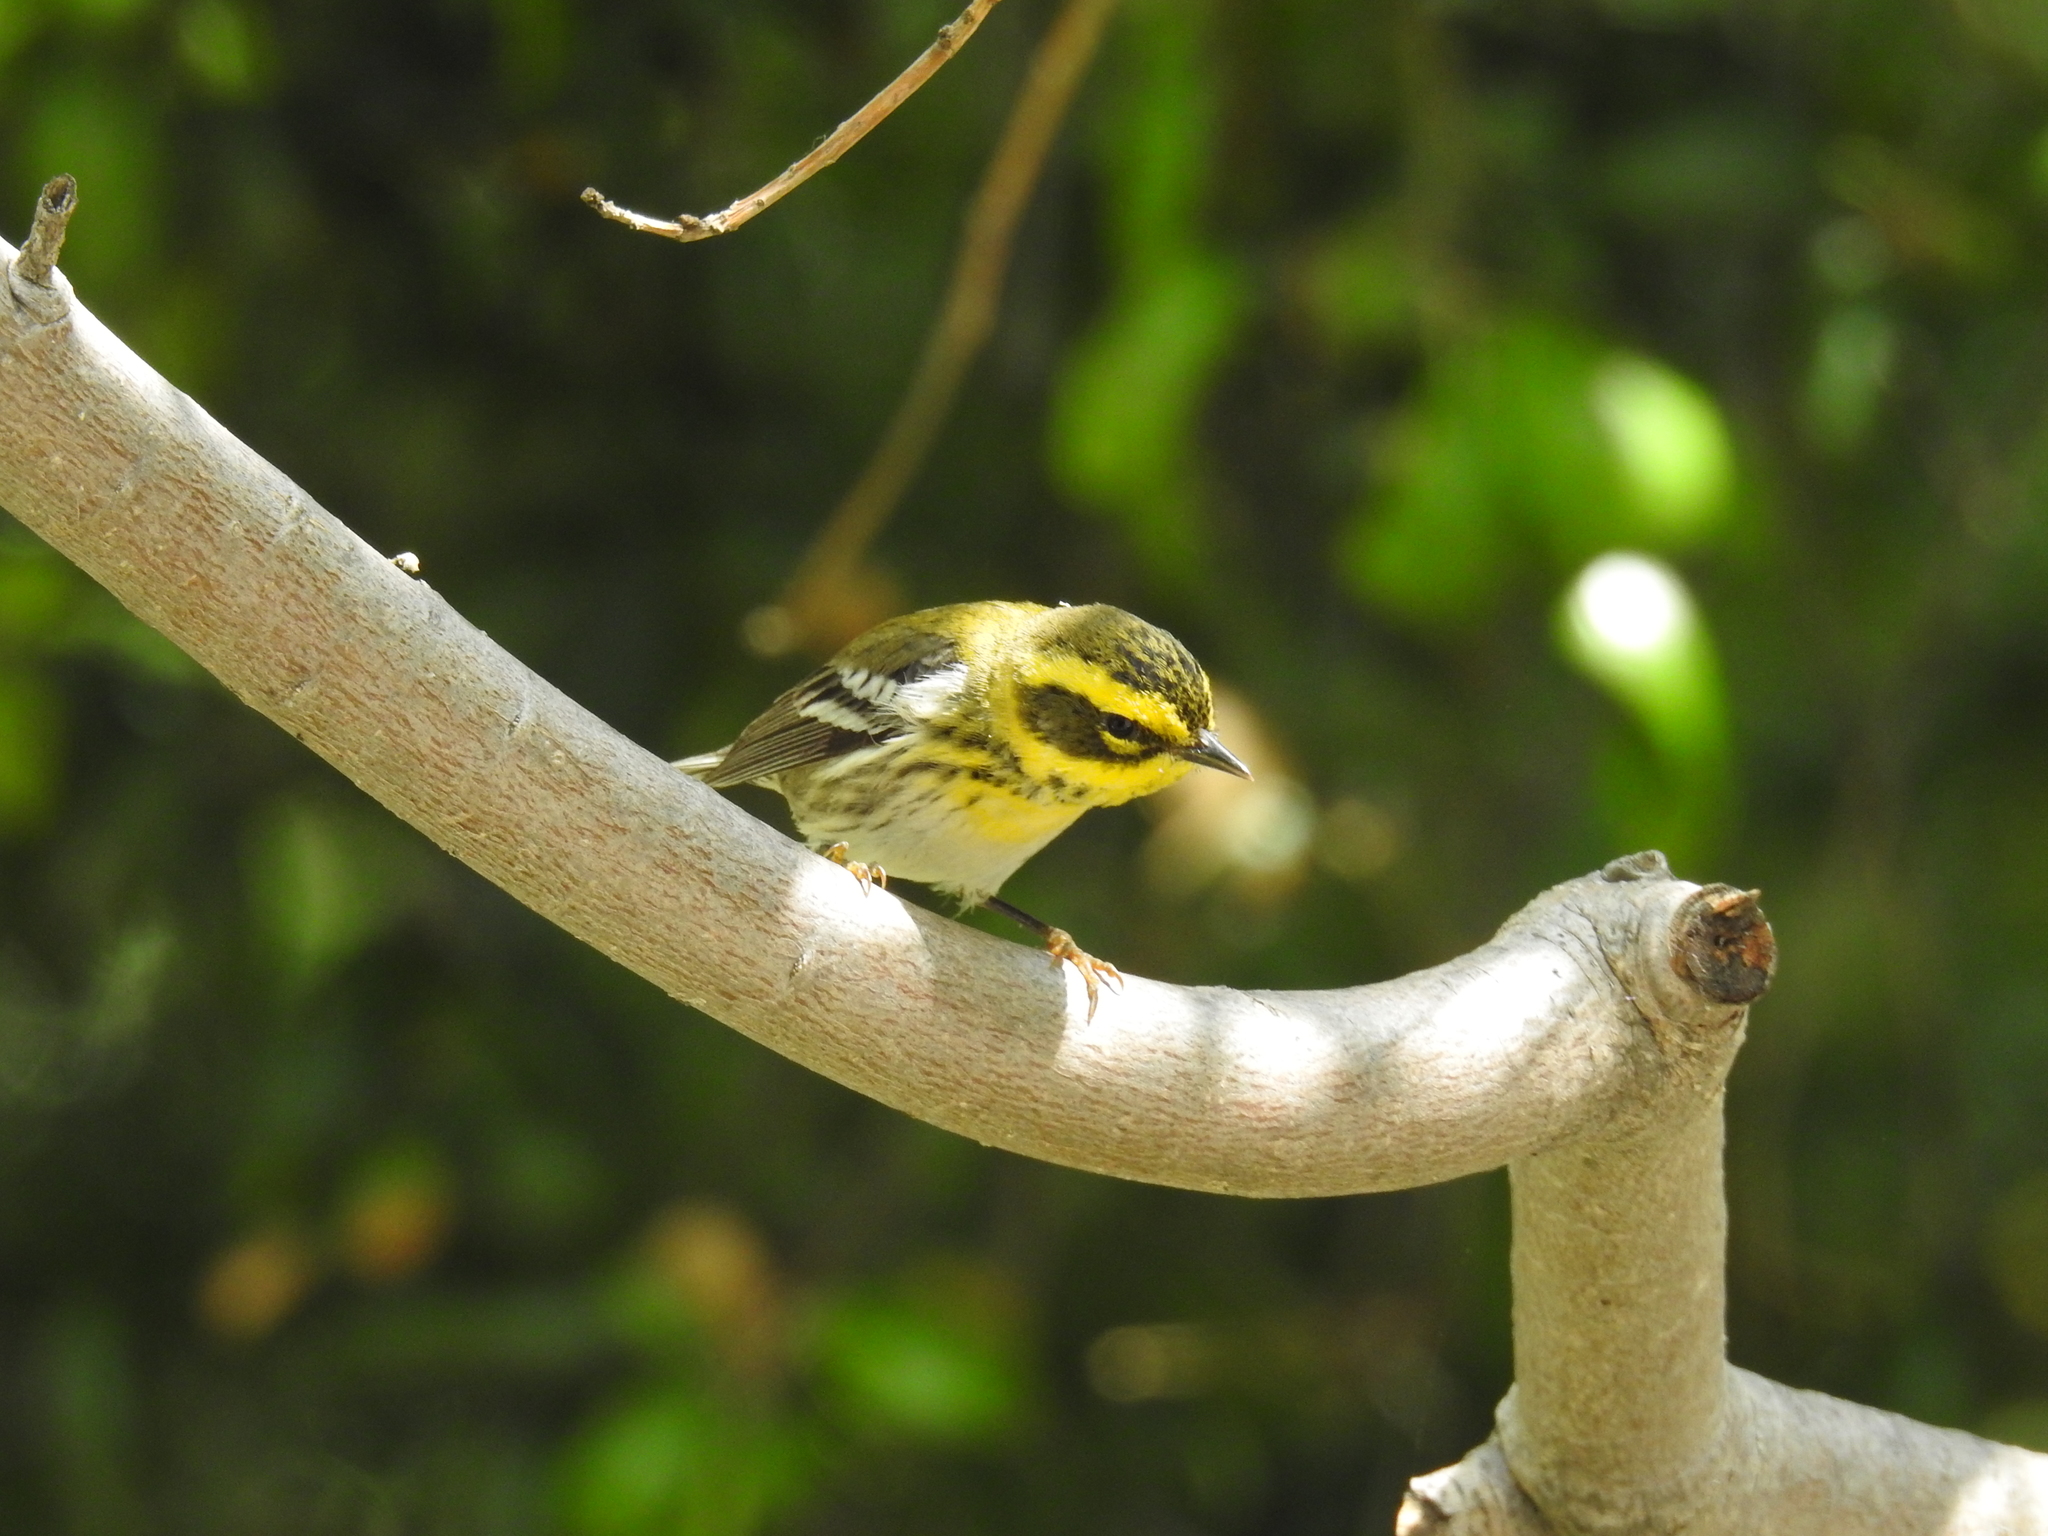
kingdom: Animalia
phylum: Chordata
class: Aves
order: Passeriformes
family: Parulidae
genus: Setophaga
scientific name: Setophaga townsendi
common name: Townsend's warbler
